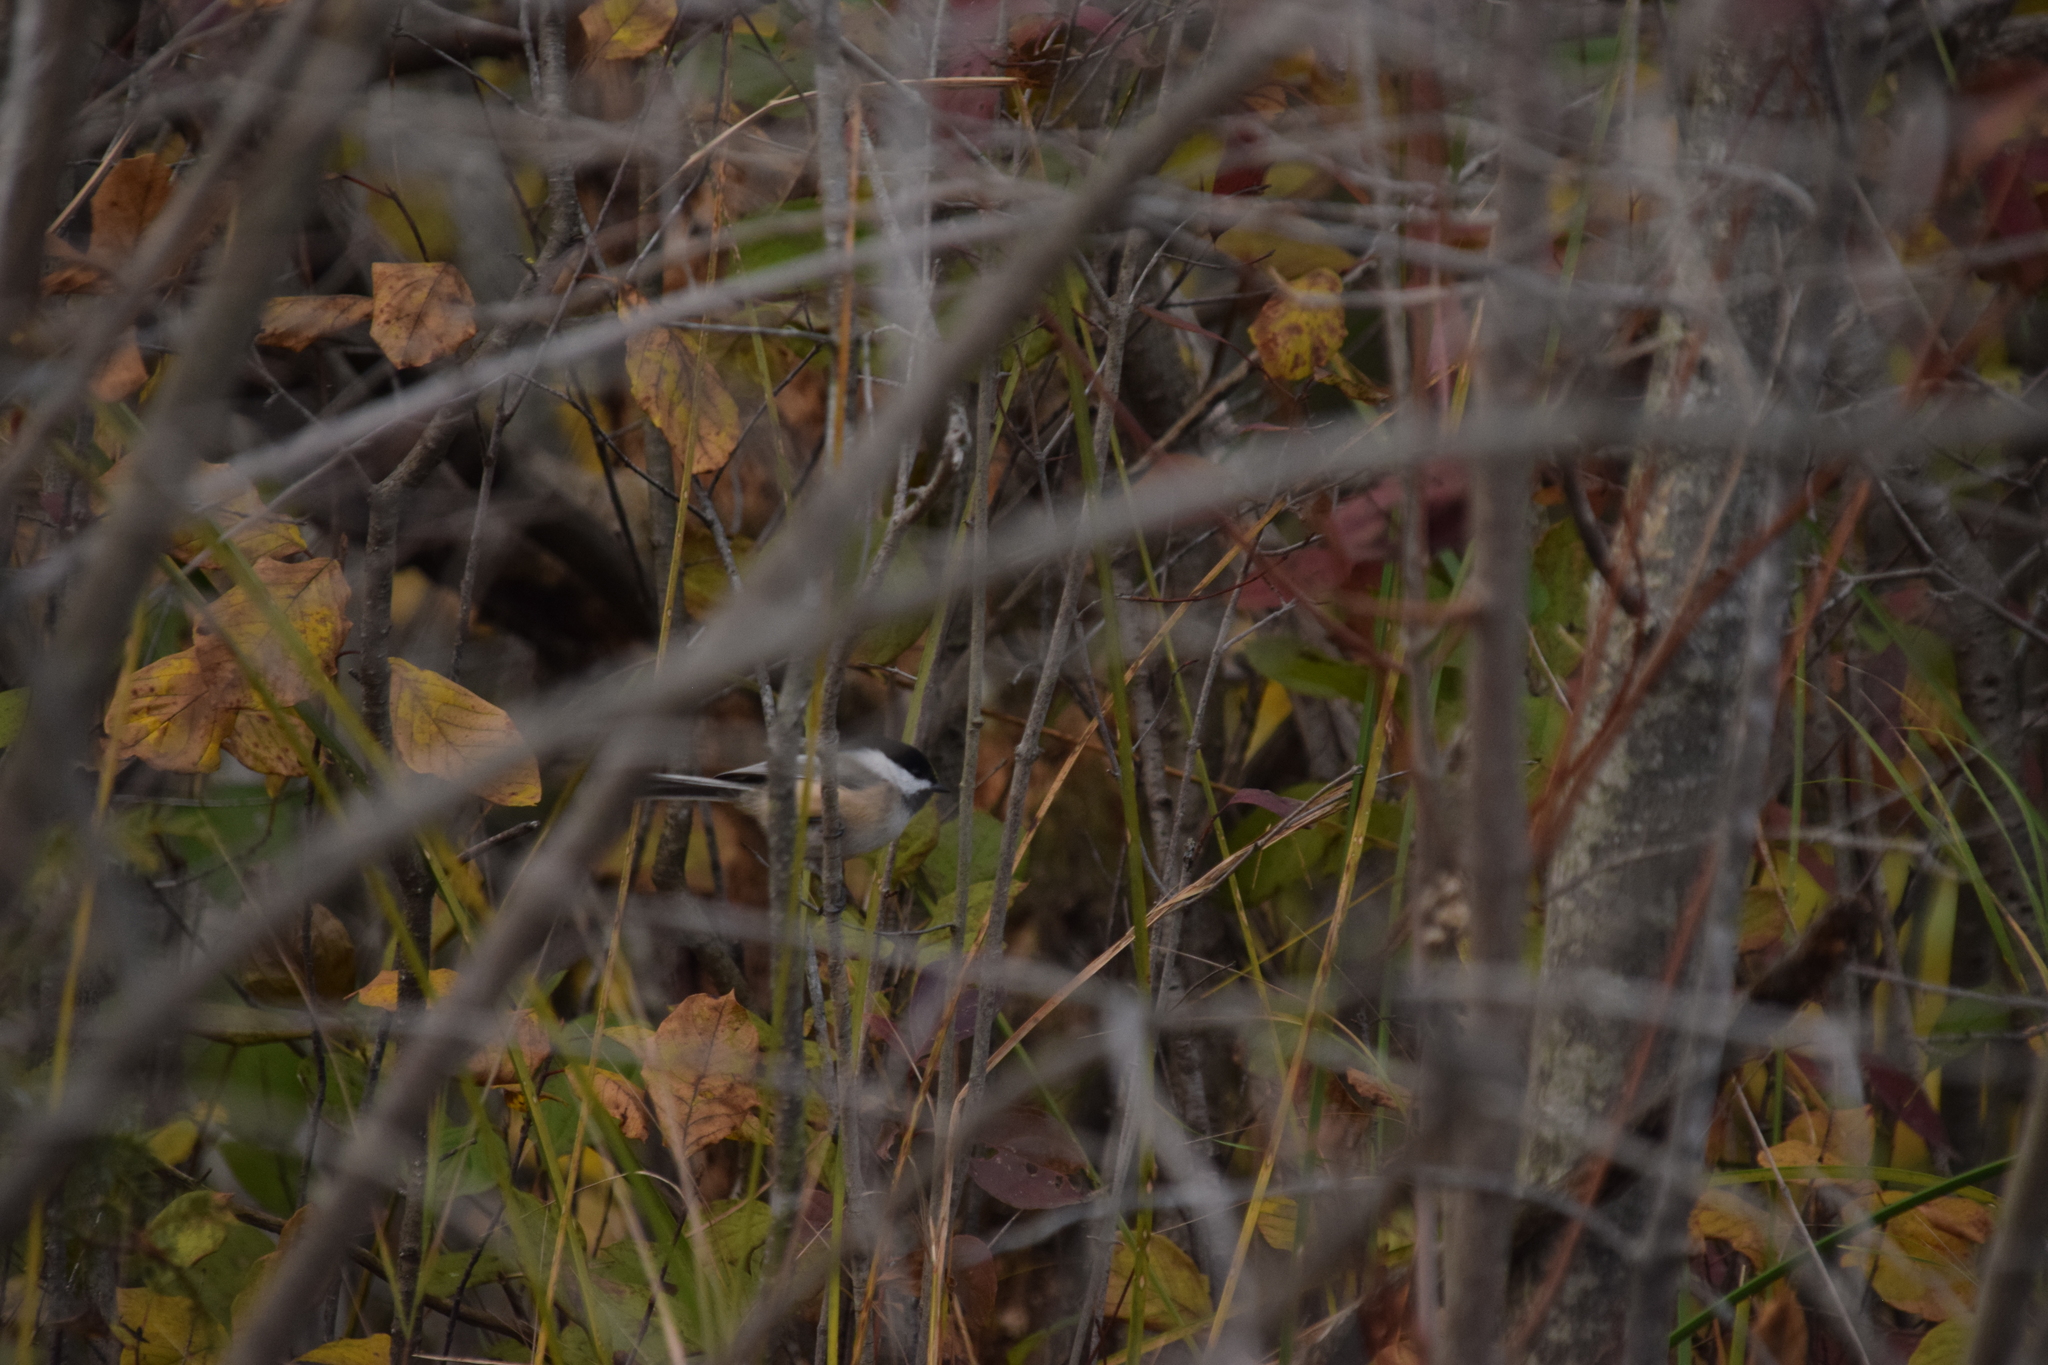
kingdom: Animalia
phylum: Chordata
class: Aves
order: Passeriformes
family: Paridae
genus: Poecile
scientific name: Poecile atricapillus
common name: Black-capped chickadee
